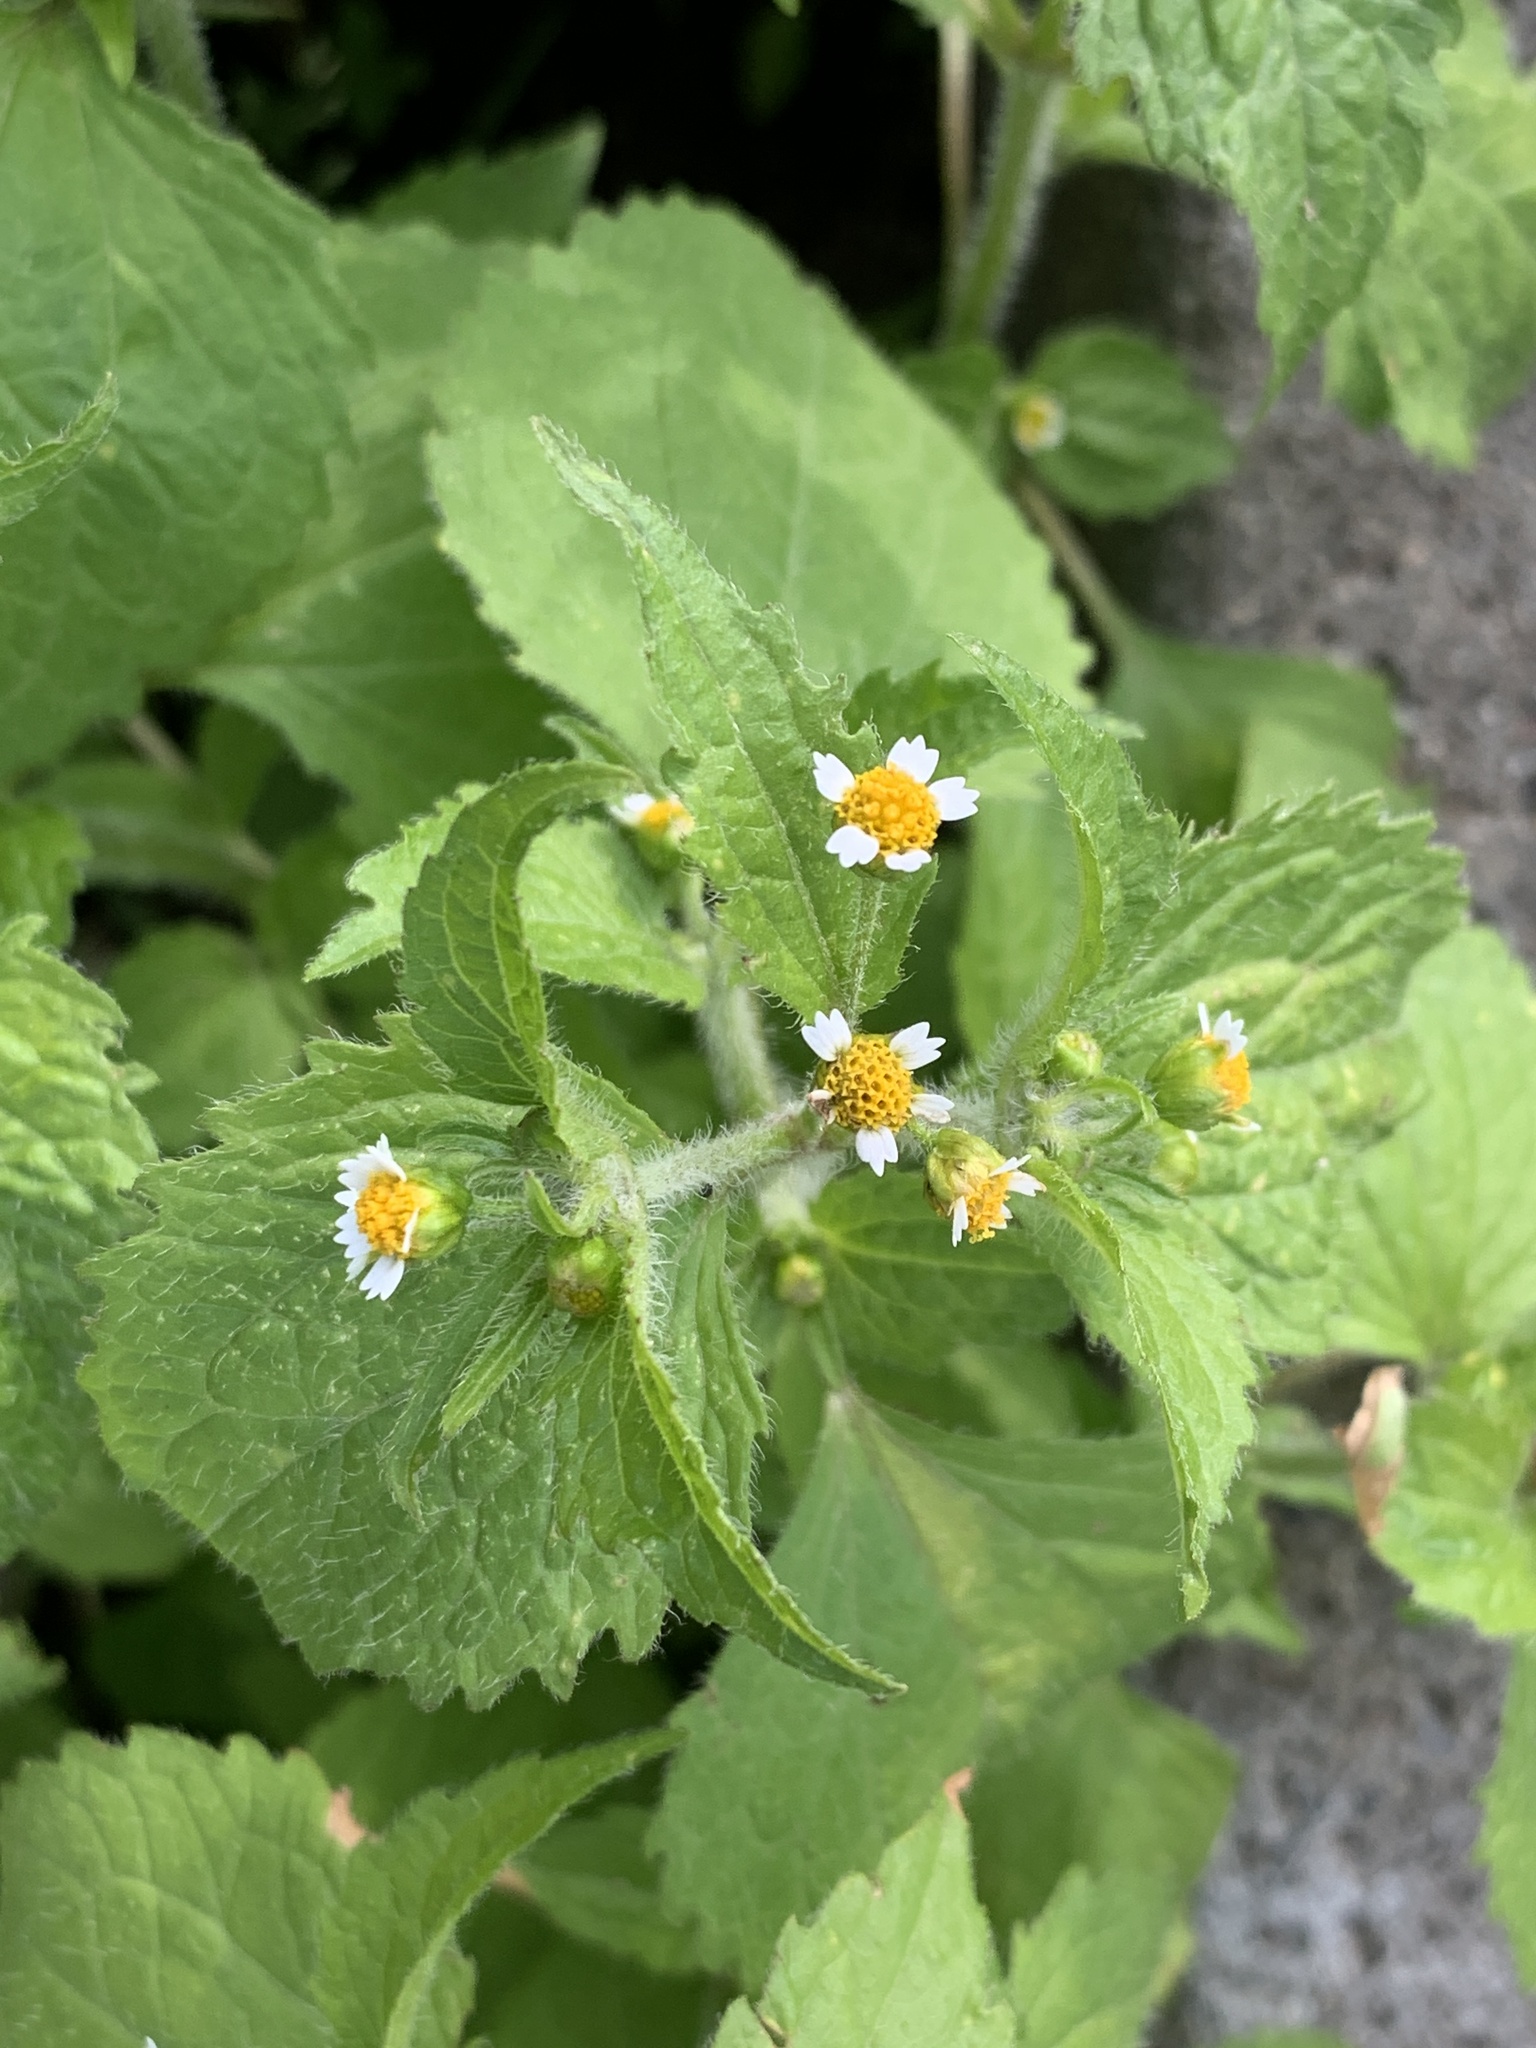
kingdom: Plantae
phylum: Tracheophyta
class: Magnoliopsida
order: Asterales
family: Asteraceae
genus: Galinsoga
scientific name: Galinsoga quadriradiata
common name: Shaggy soldier
